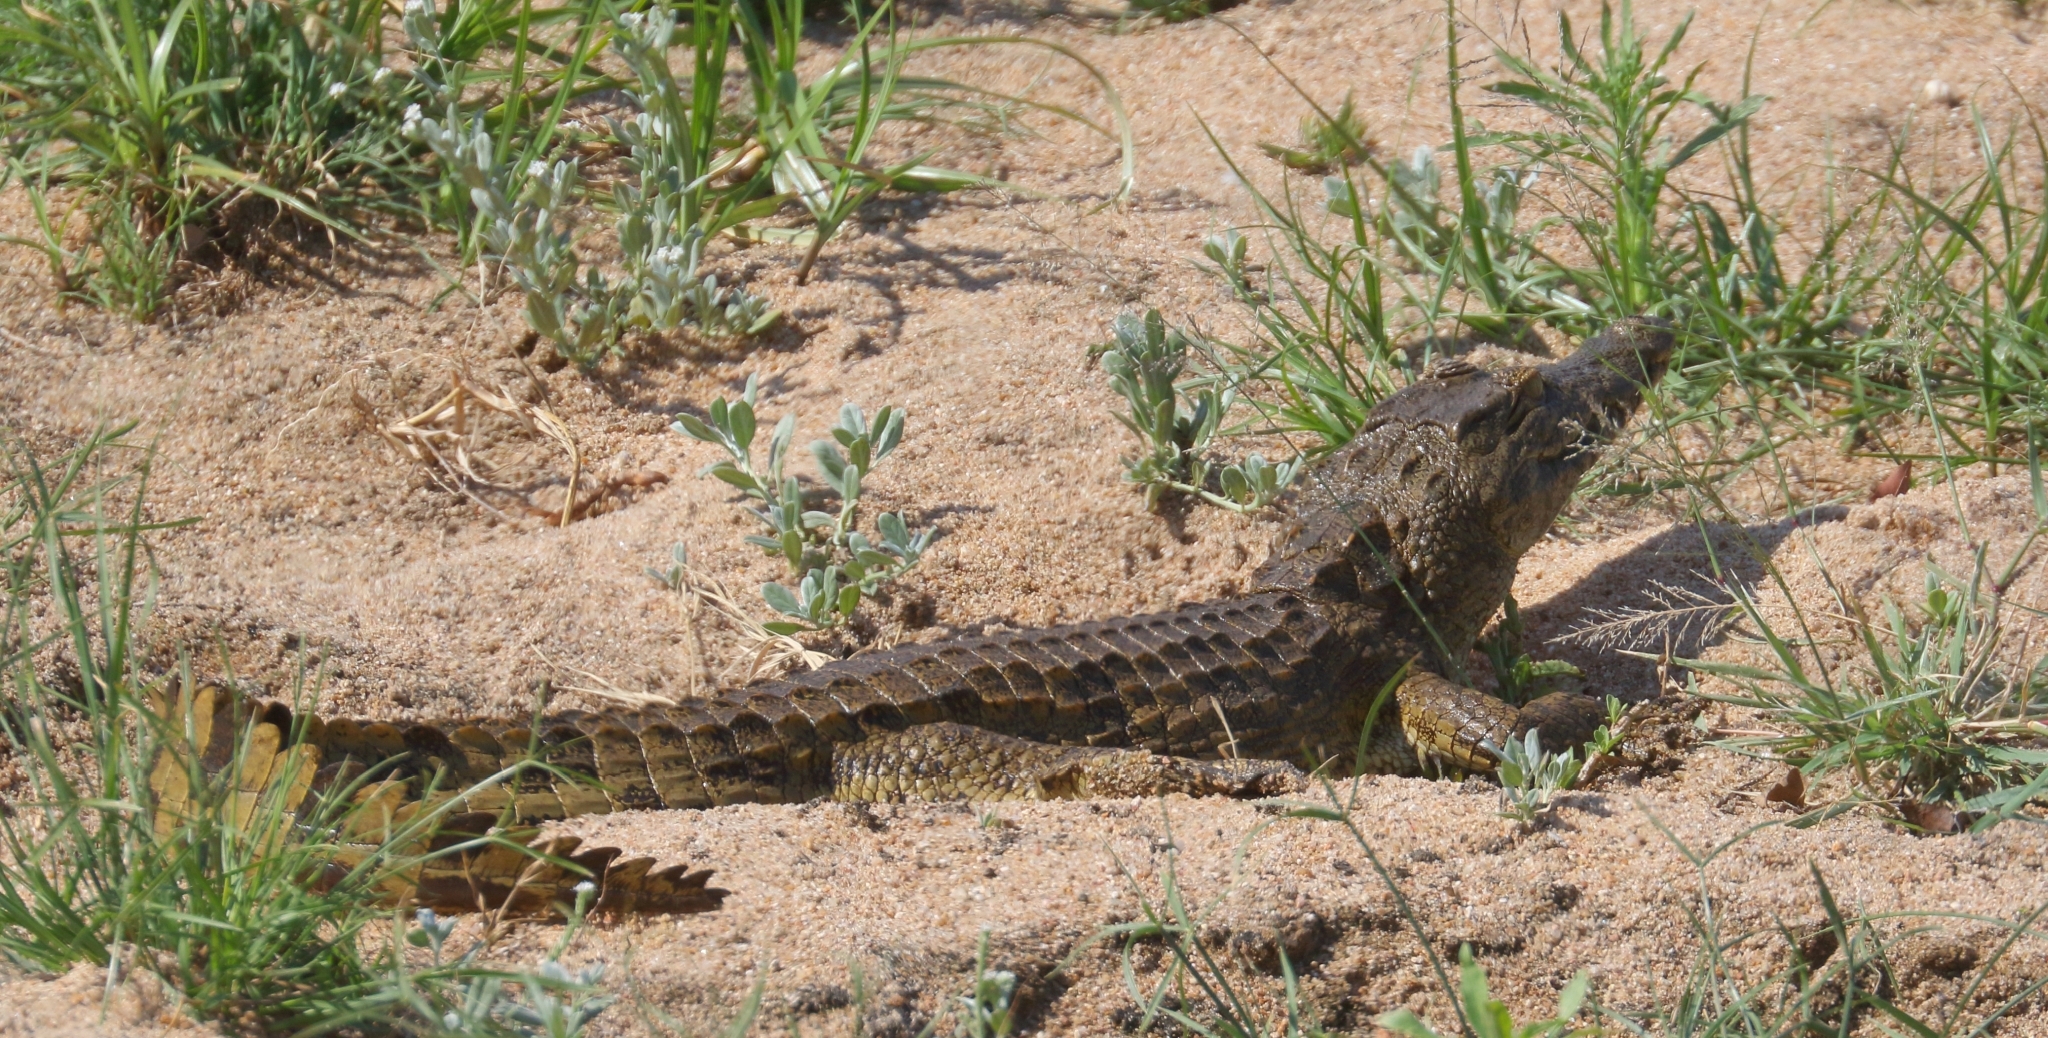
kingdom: Animalia
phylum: Chordata
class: Crocodylia
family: Crocodylidae
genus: Crocodylus
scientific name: Crocodylus niloticus
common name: Nile crocodile
